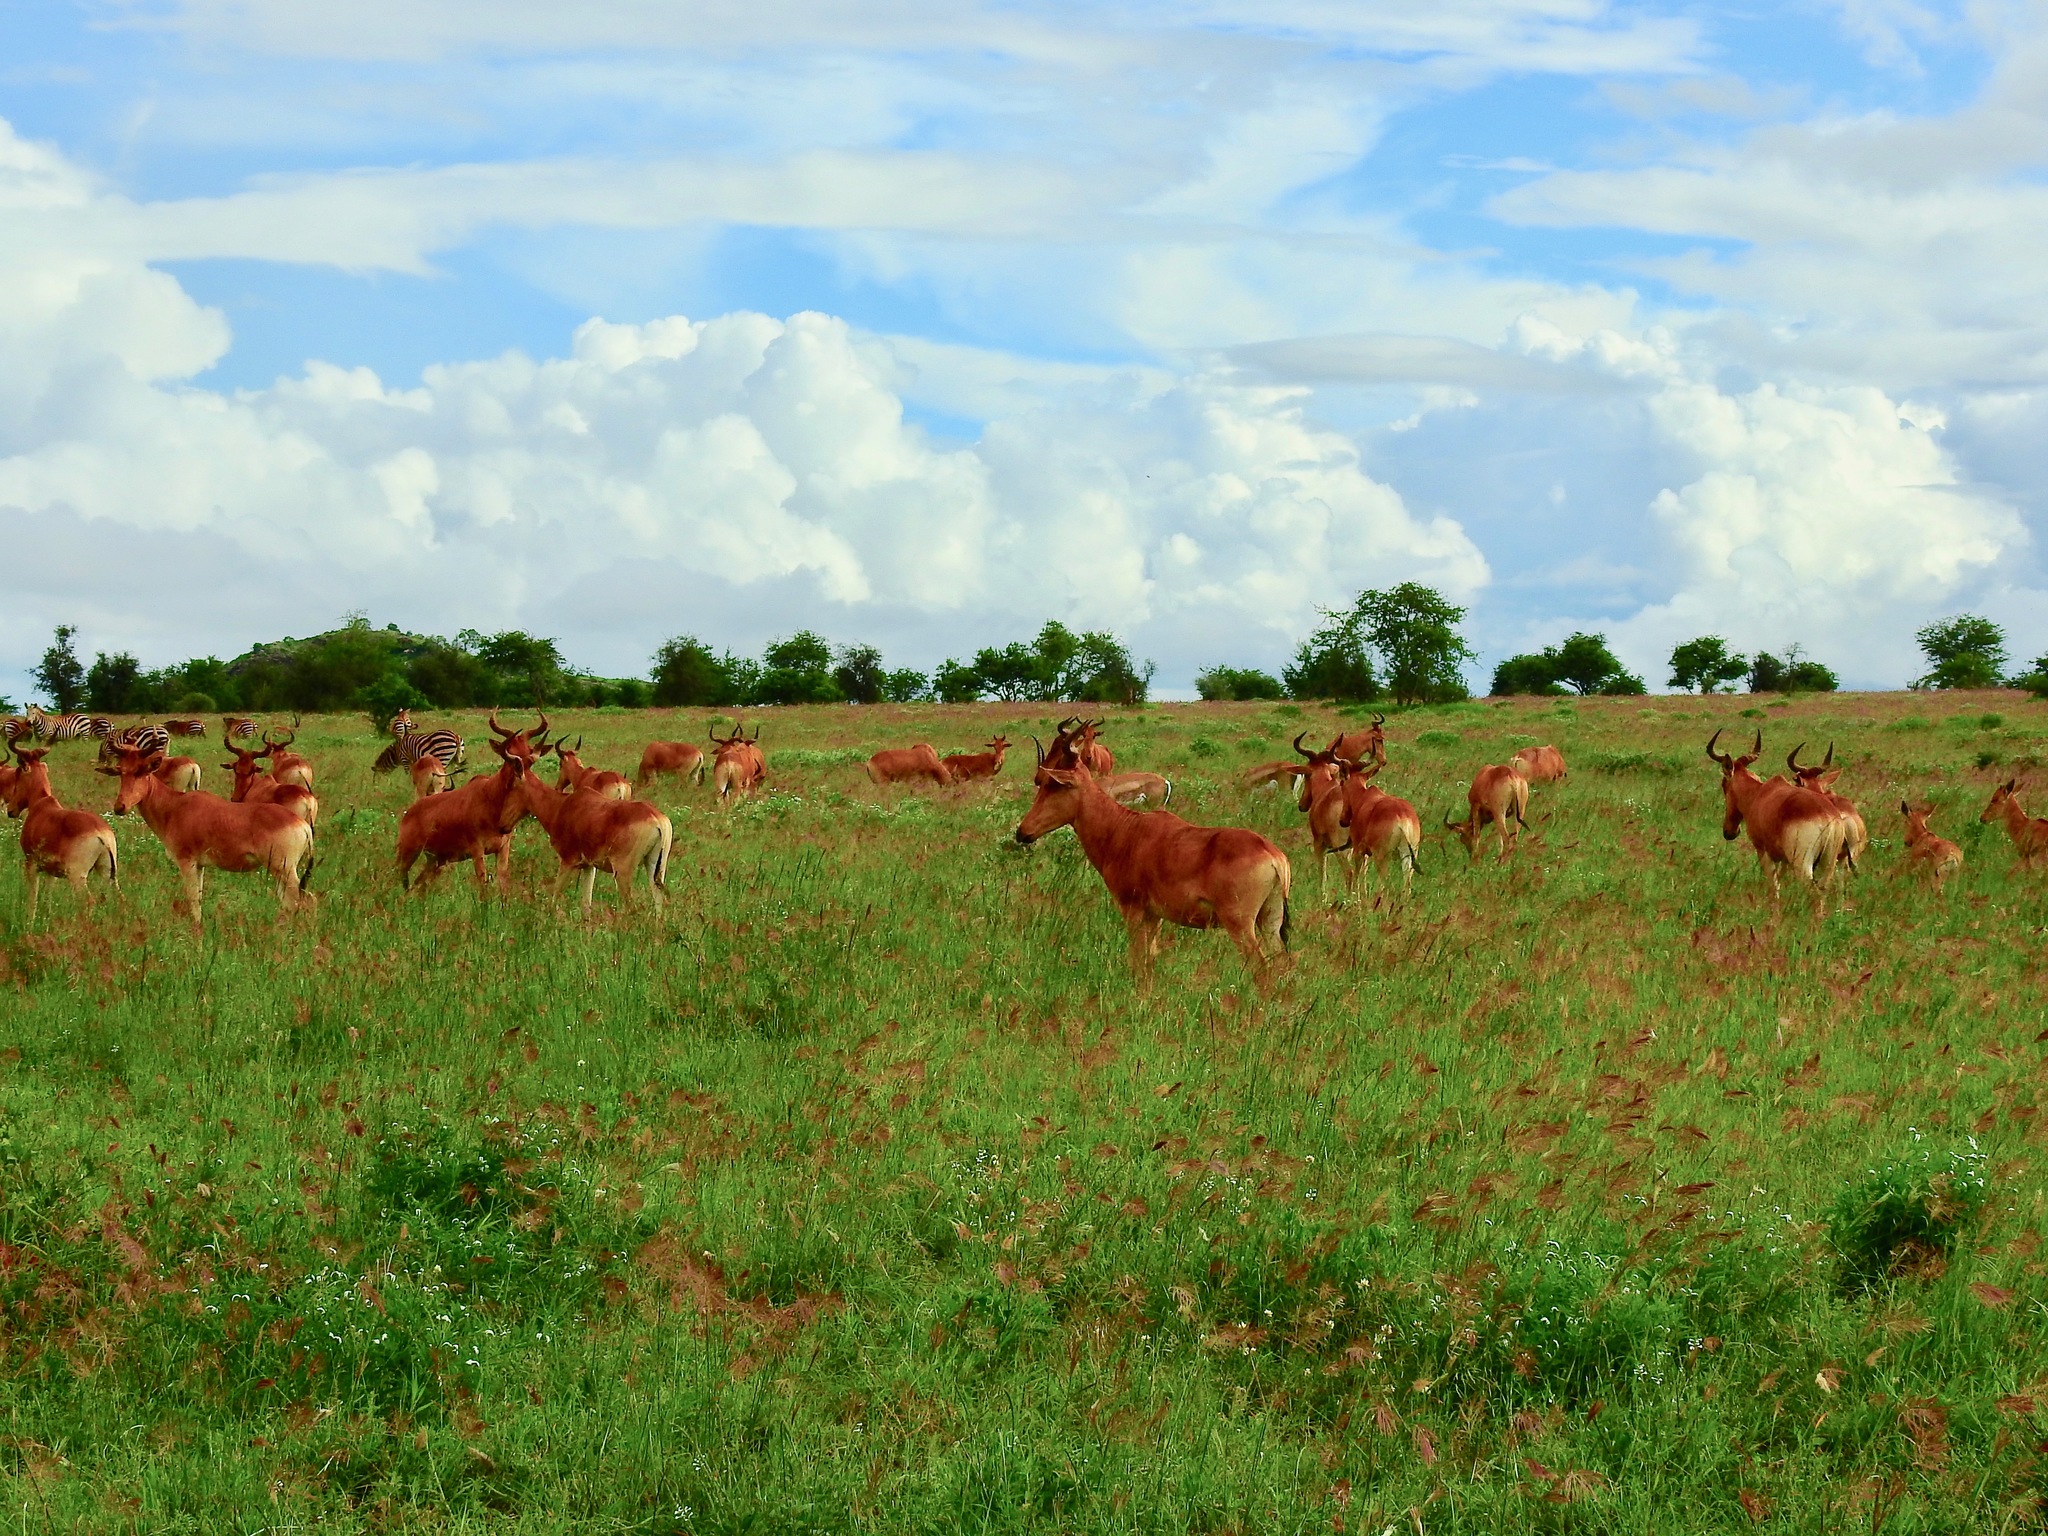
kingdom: Animalia
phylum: Chordata
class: Mammalia
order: Artiodactyla
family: Bovidae
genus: Alcelaphus
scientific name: Alcelaphus buselaphus
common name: Hartebeest
